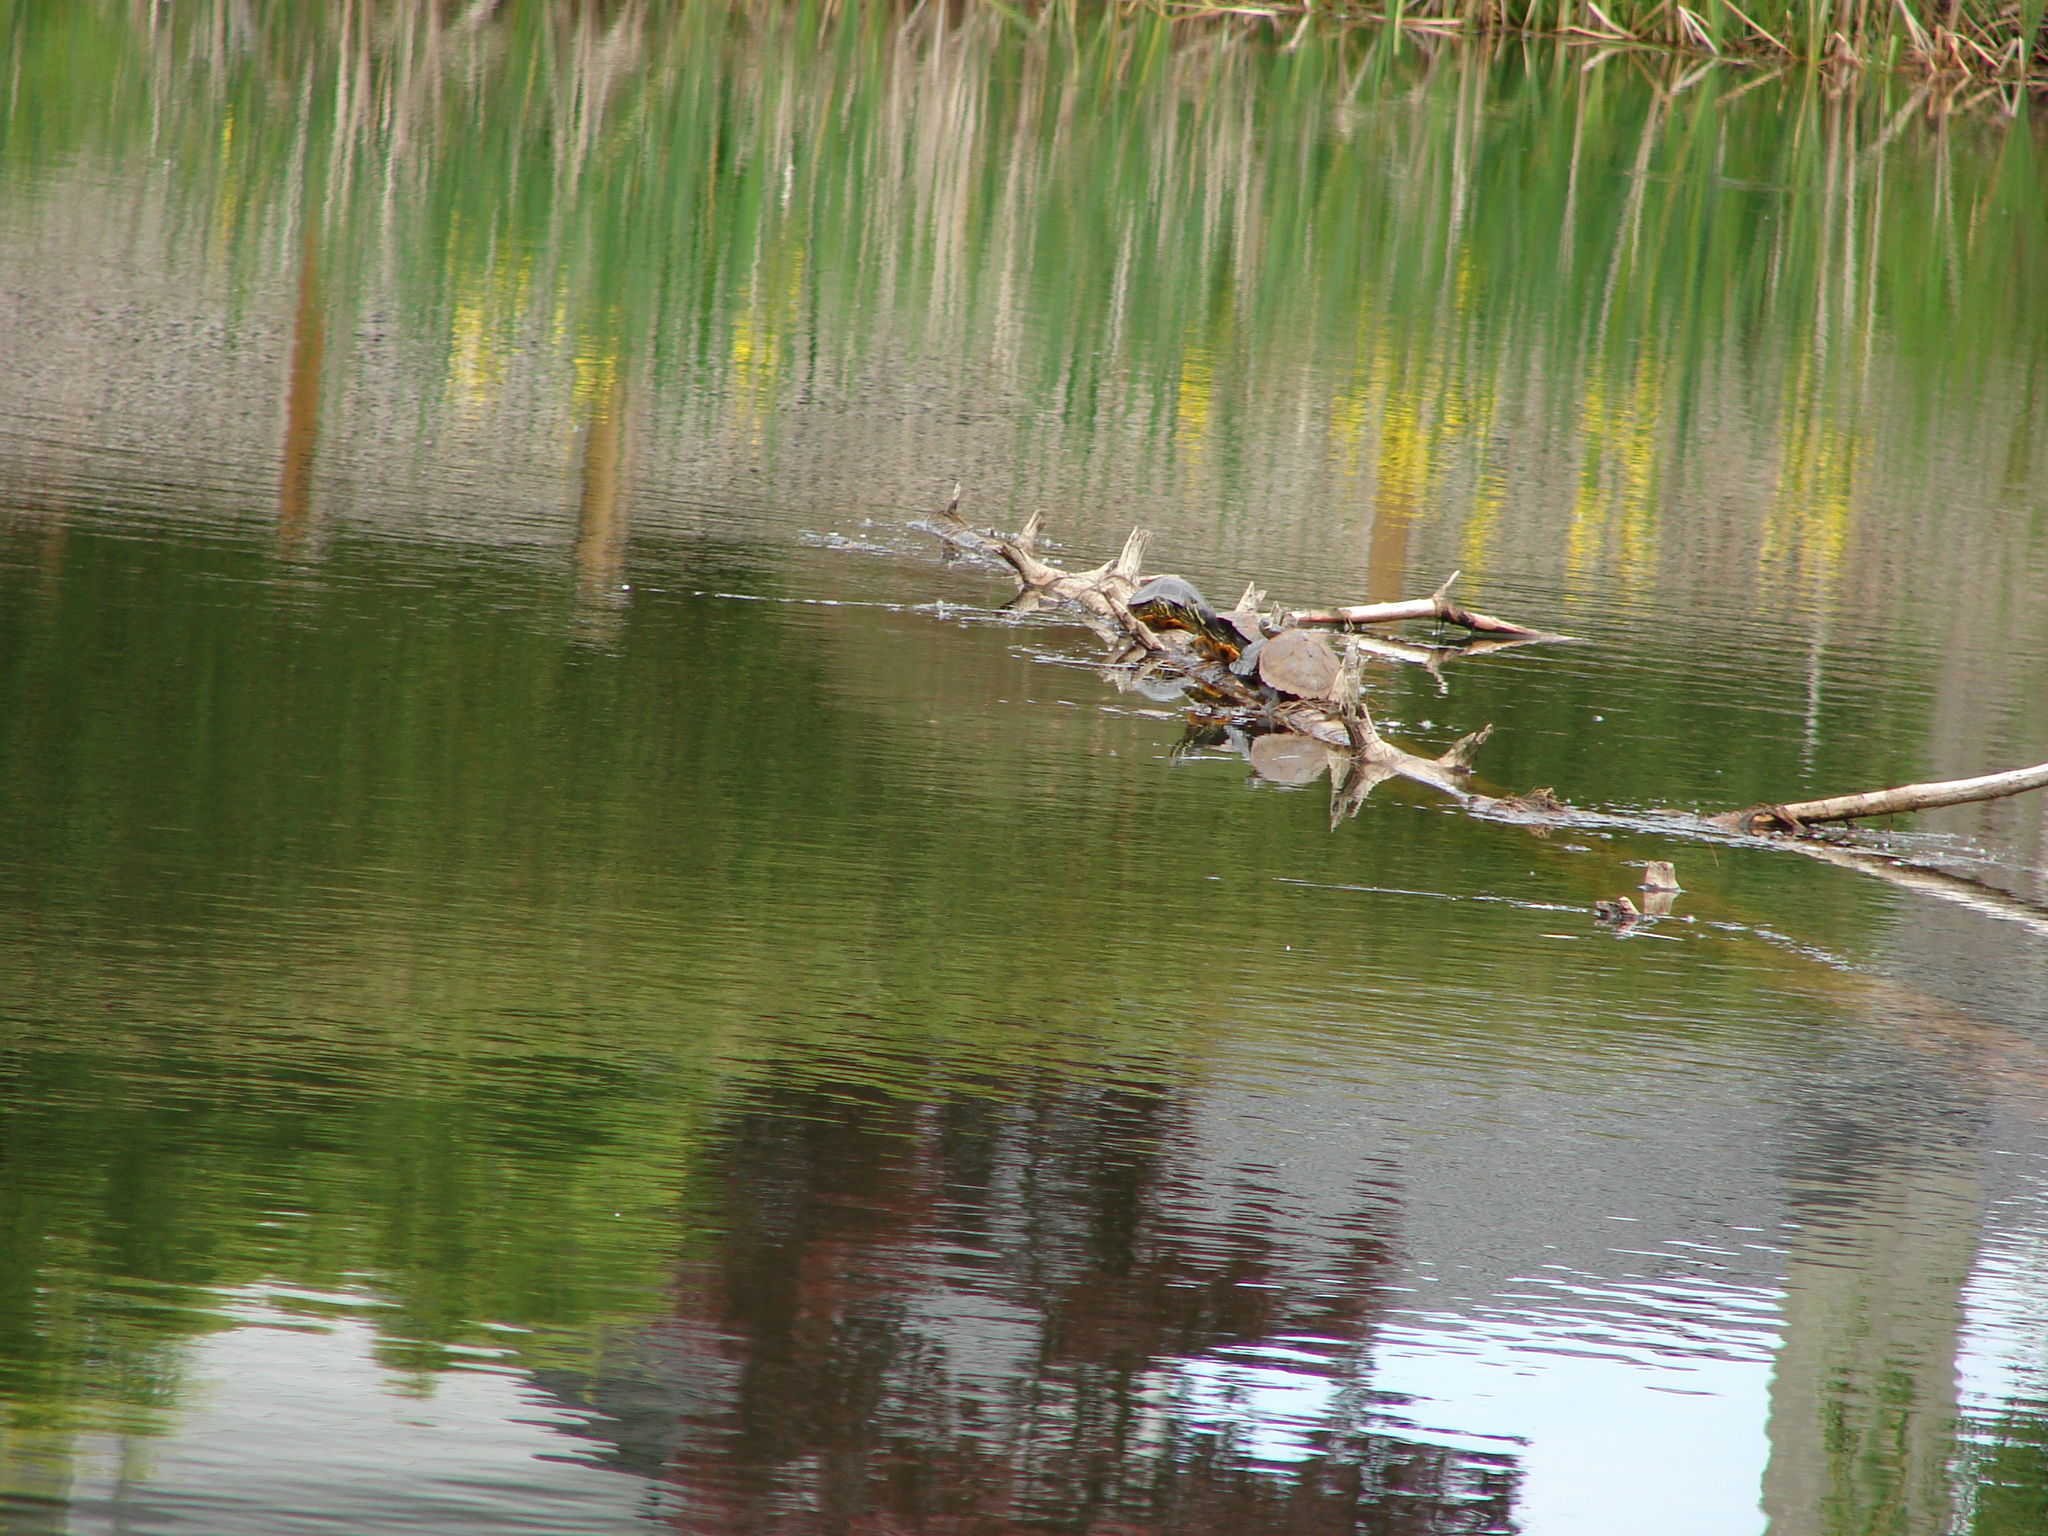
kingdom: Animalia
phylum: Chordata
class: Testudines
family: Emydidae
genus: Trachemys
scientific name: Trachemys scripta
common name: Slider
